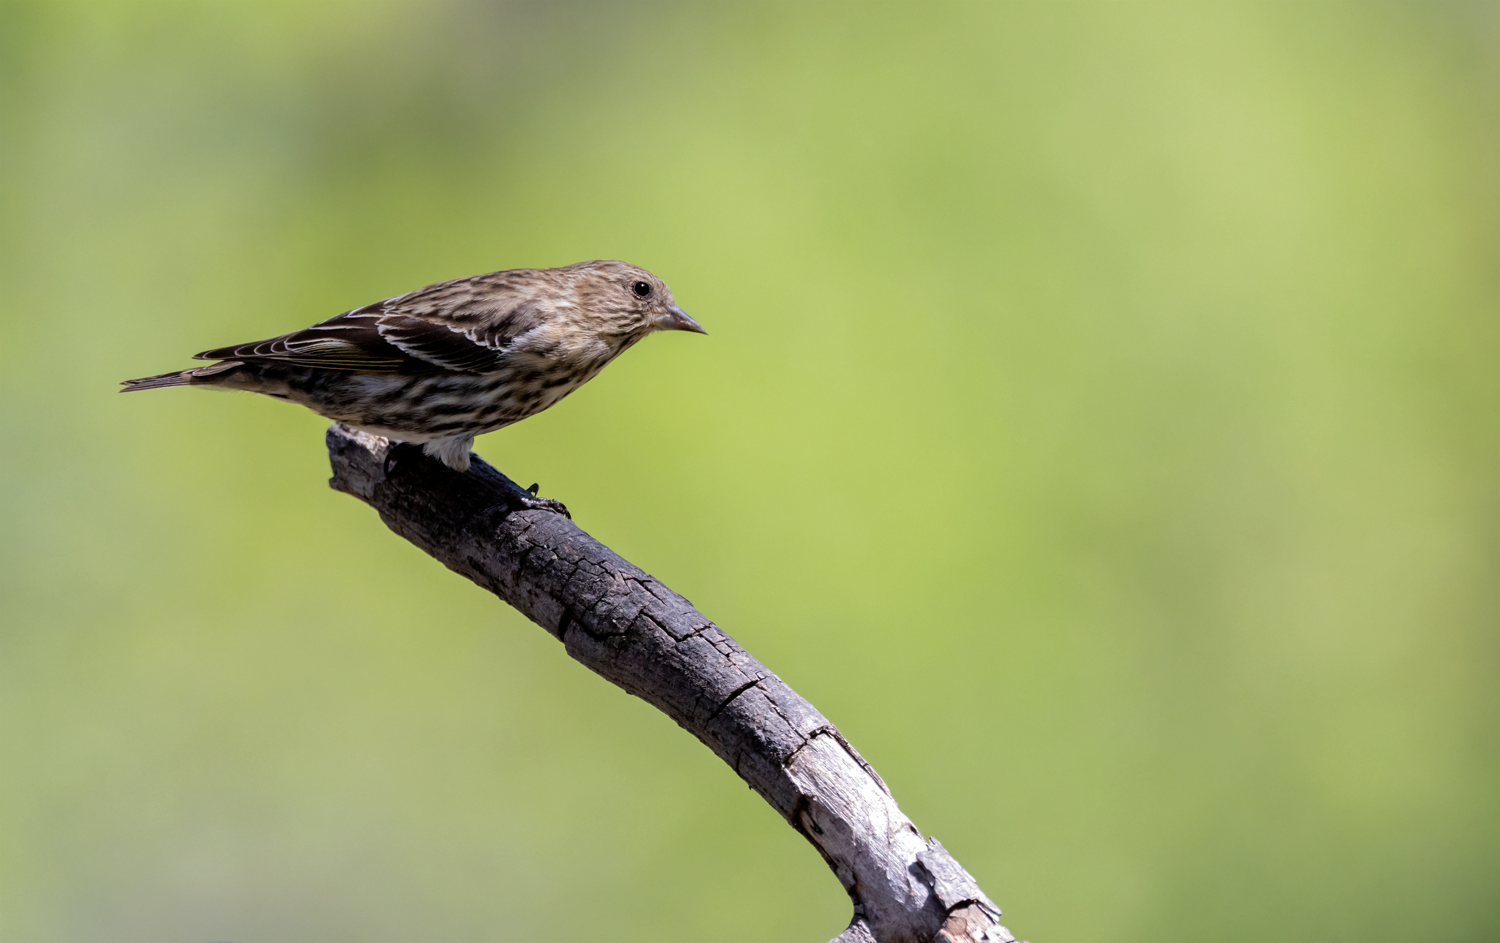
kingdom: Animalia
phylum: Chordata
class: Aves
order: Passeriformes
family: Fringillidae
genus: Spinus
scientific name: Spinus pinus
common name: Pine siskin
